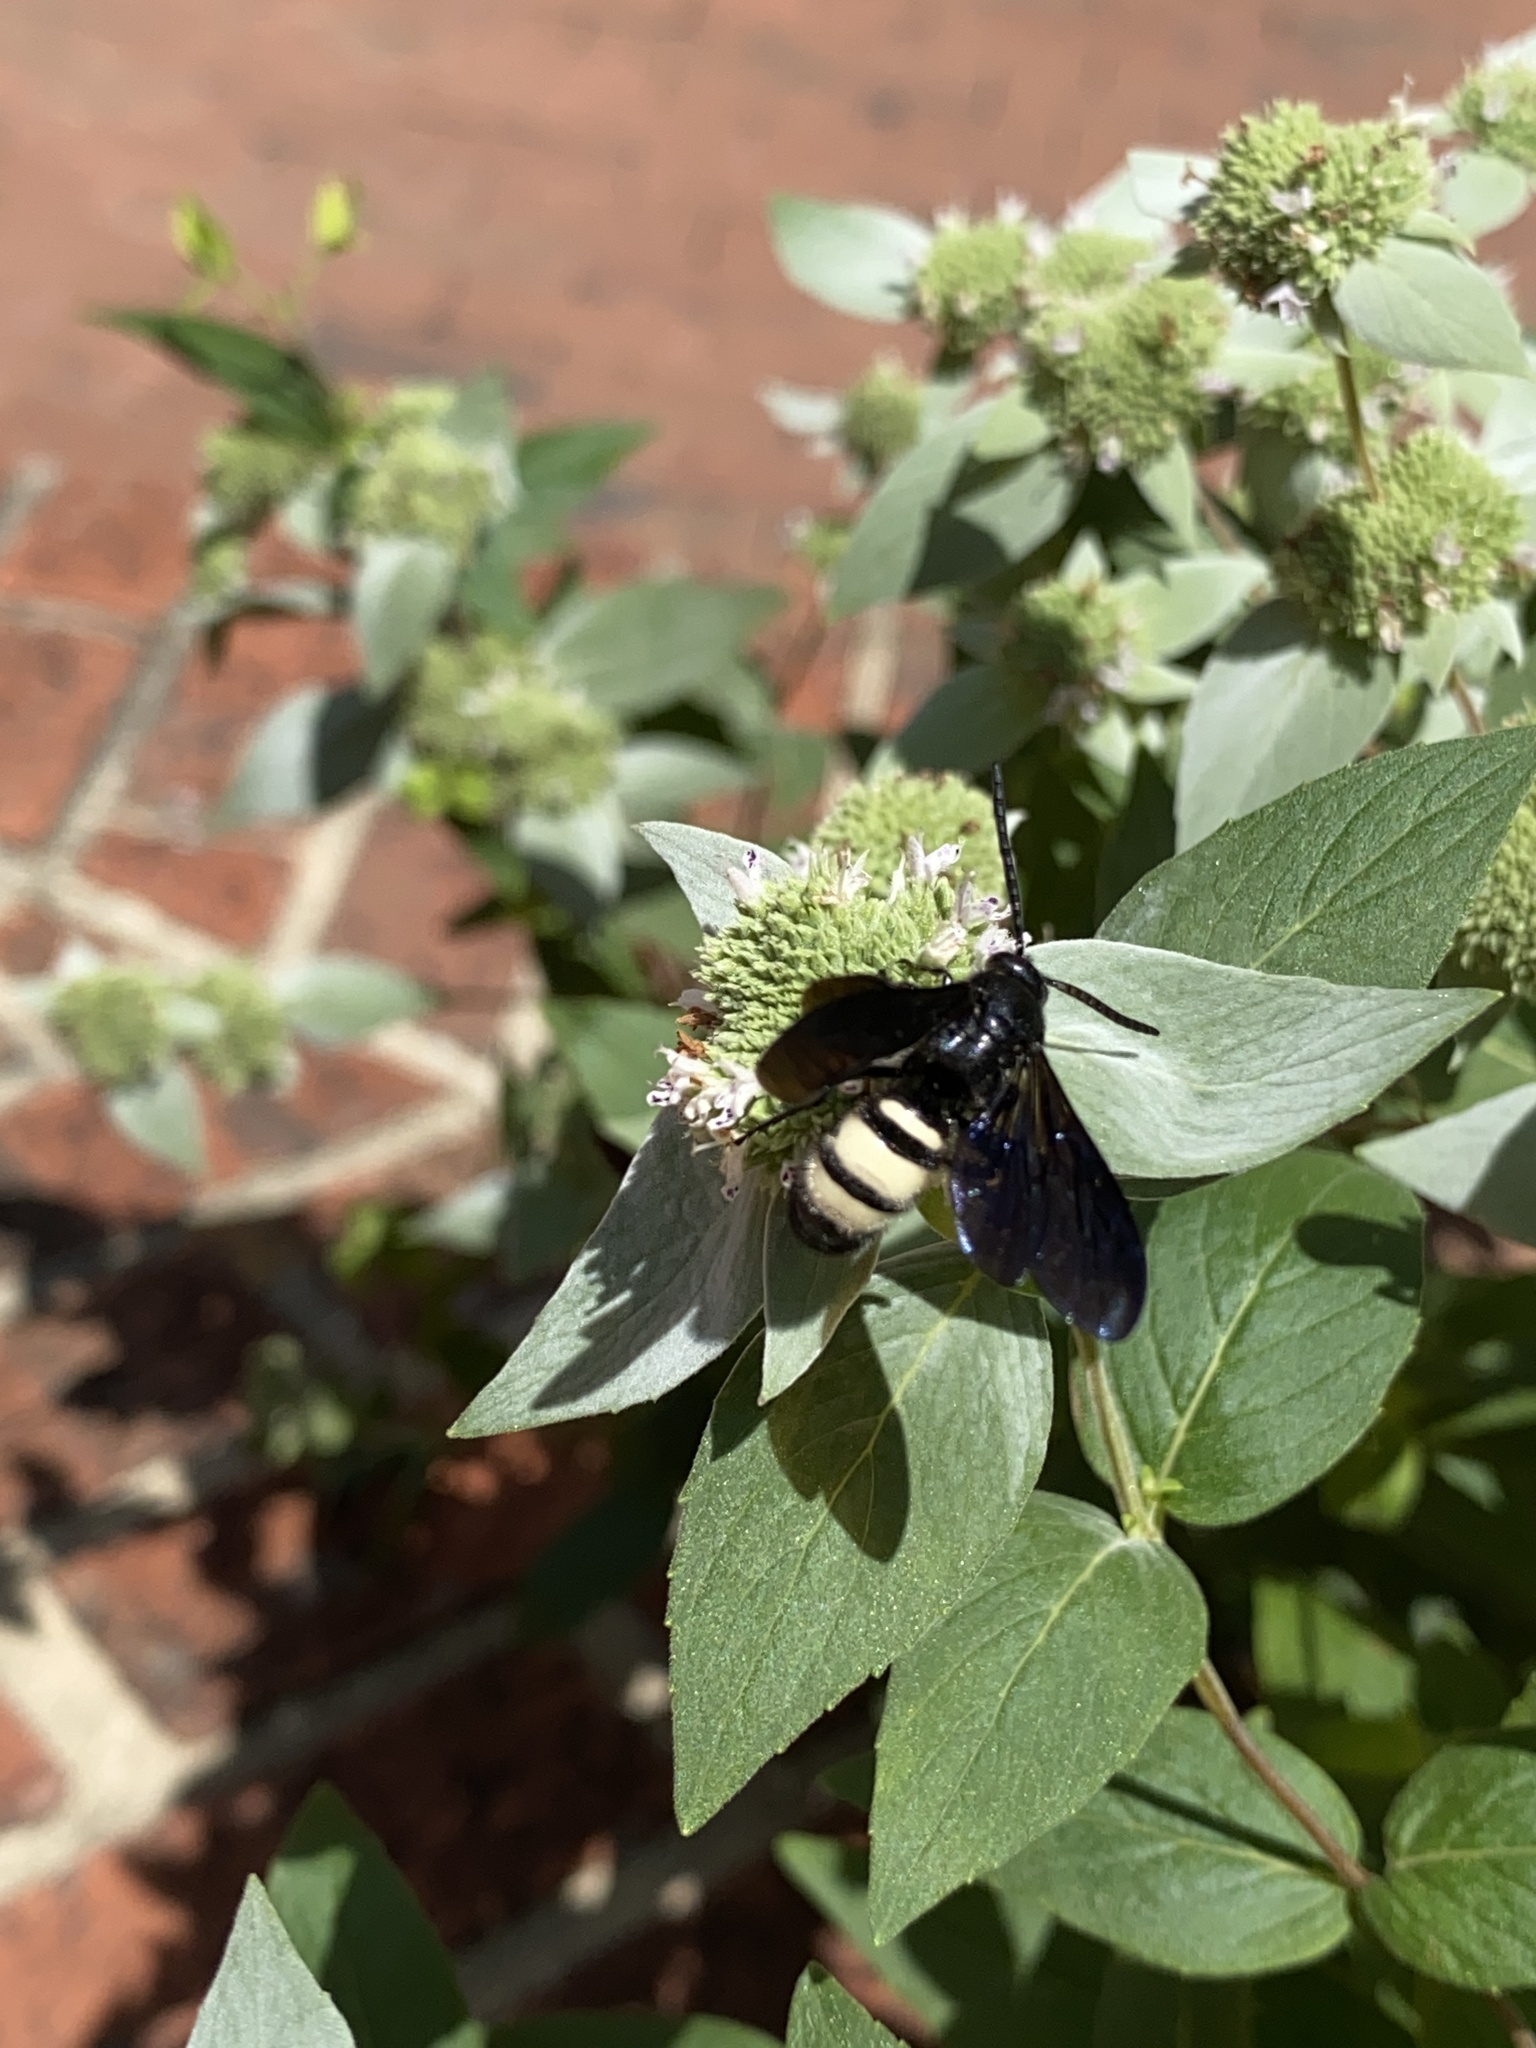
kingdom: Animalia
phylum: Arthropoda
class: Insecta
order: Hymenoptera
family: Scoliidae
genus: Scolia
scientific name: Scolia bicincta
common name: Double-banded scoliid wasp
